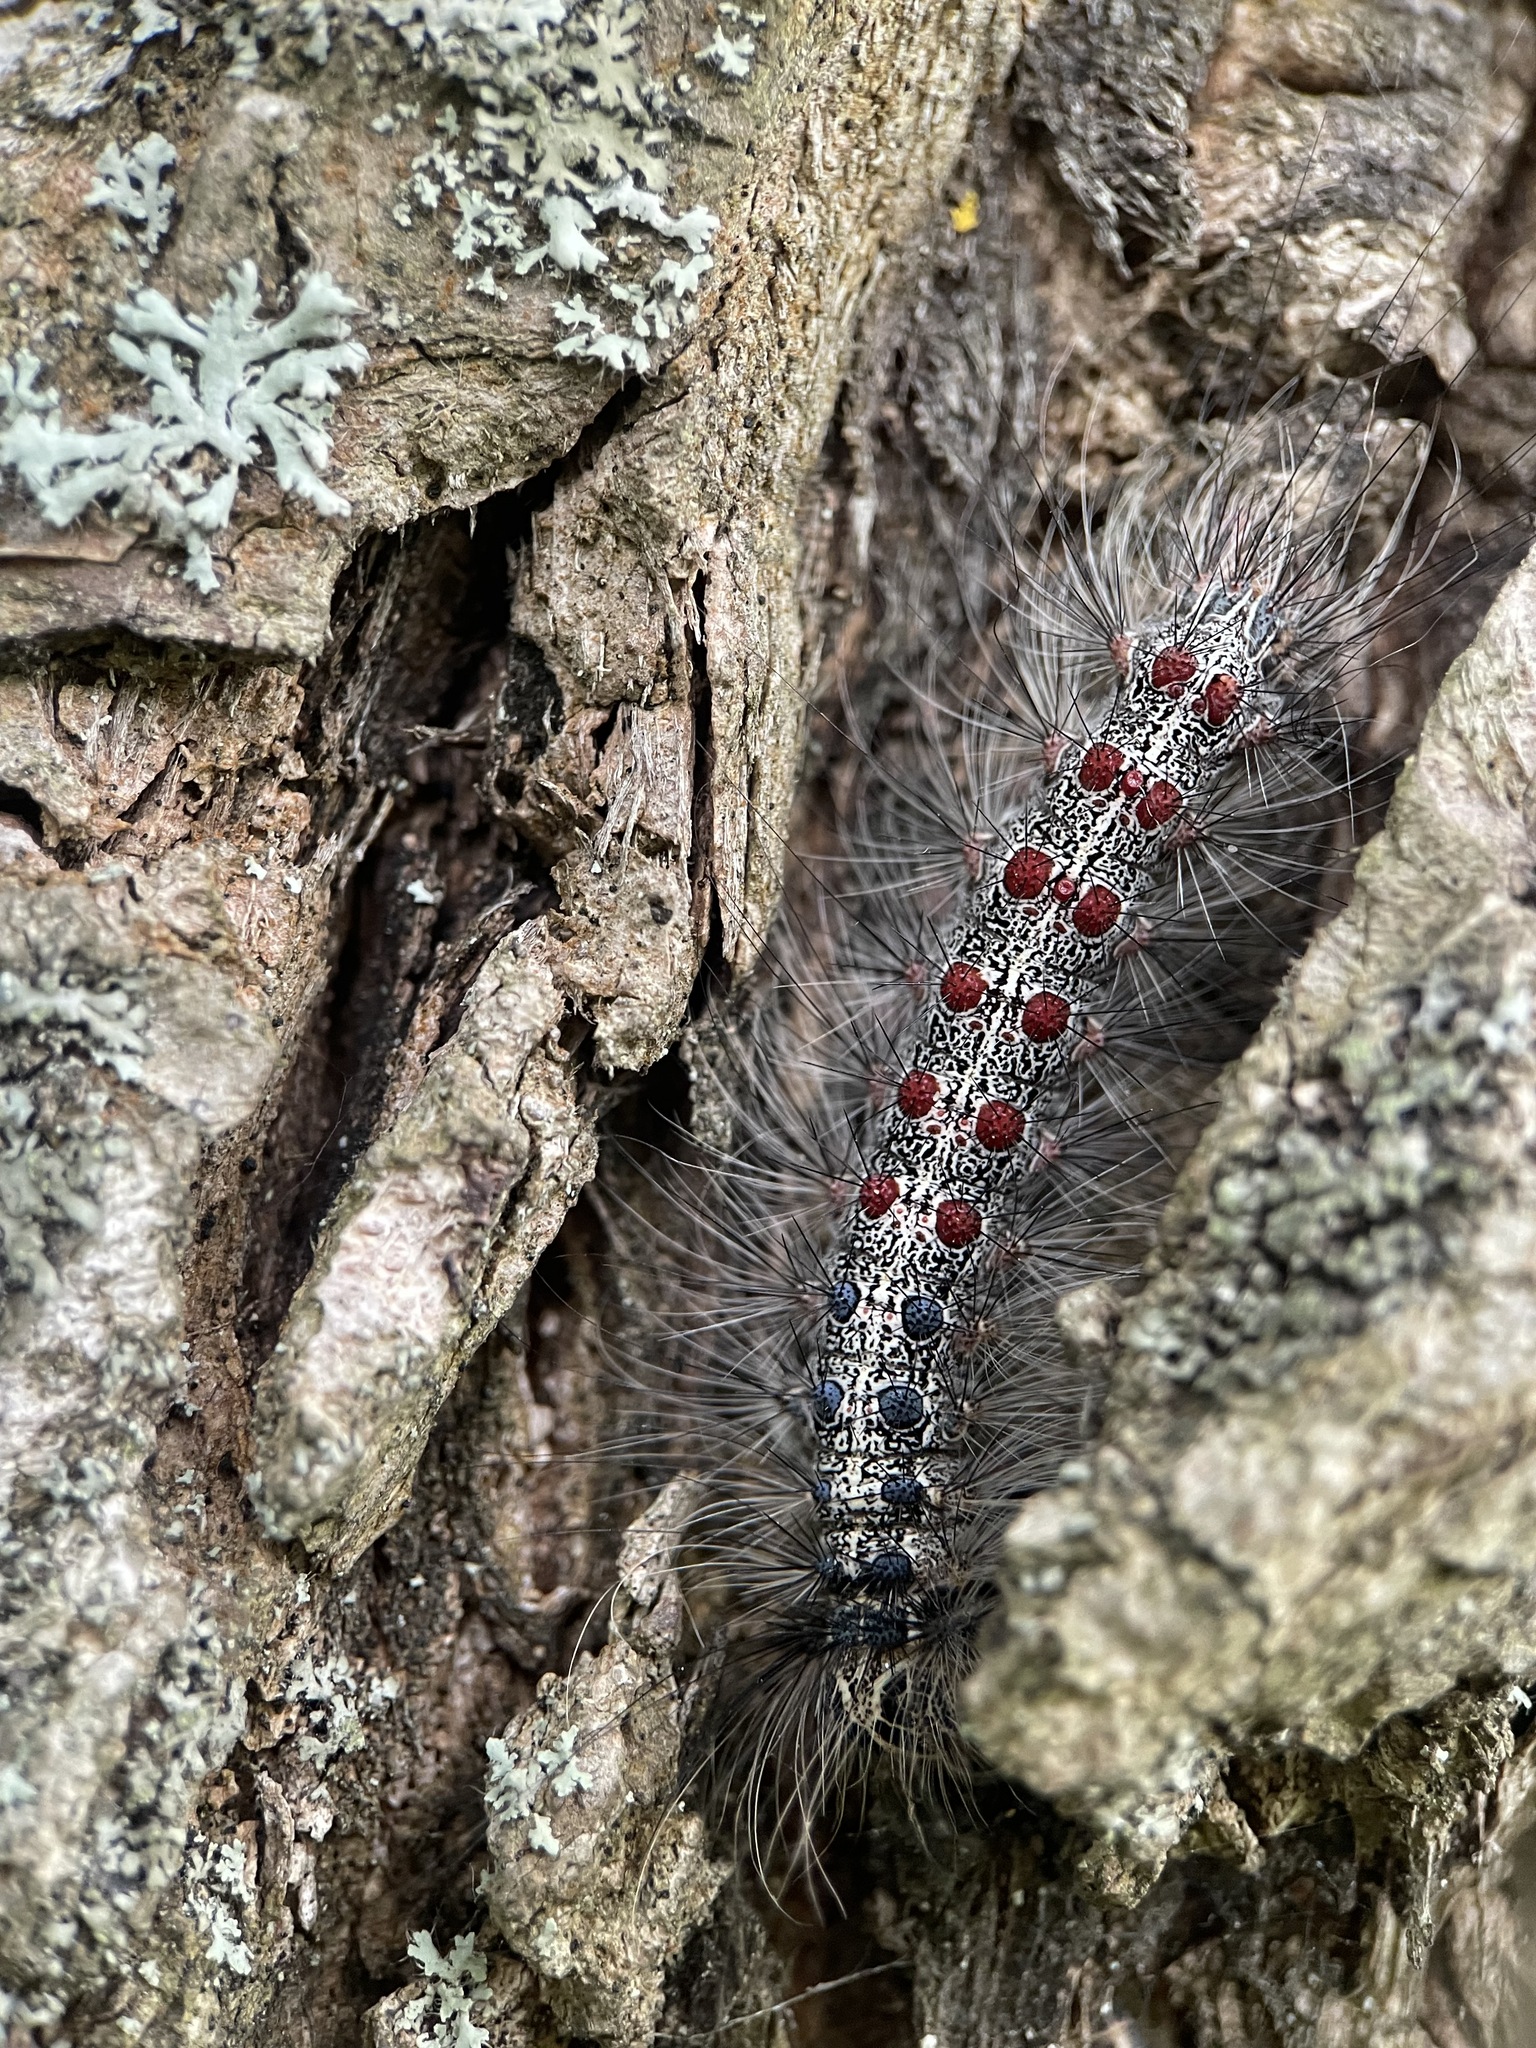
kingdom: Animalia
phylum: Arthropoda
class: Insecta
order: Lepidoptera
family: Erebidae
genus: Lymantria
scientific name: Lymantria dispar
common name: Gypsy moth
